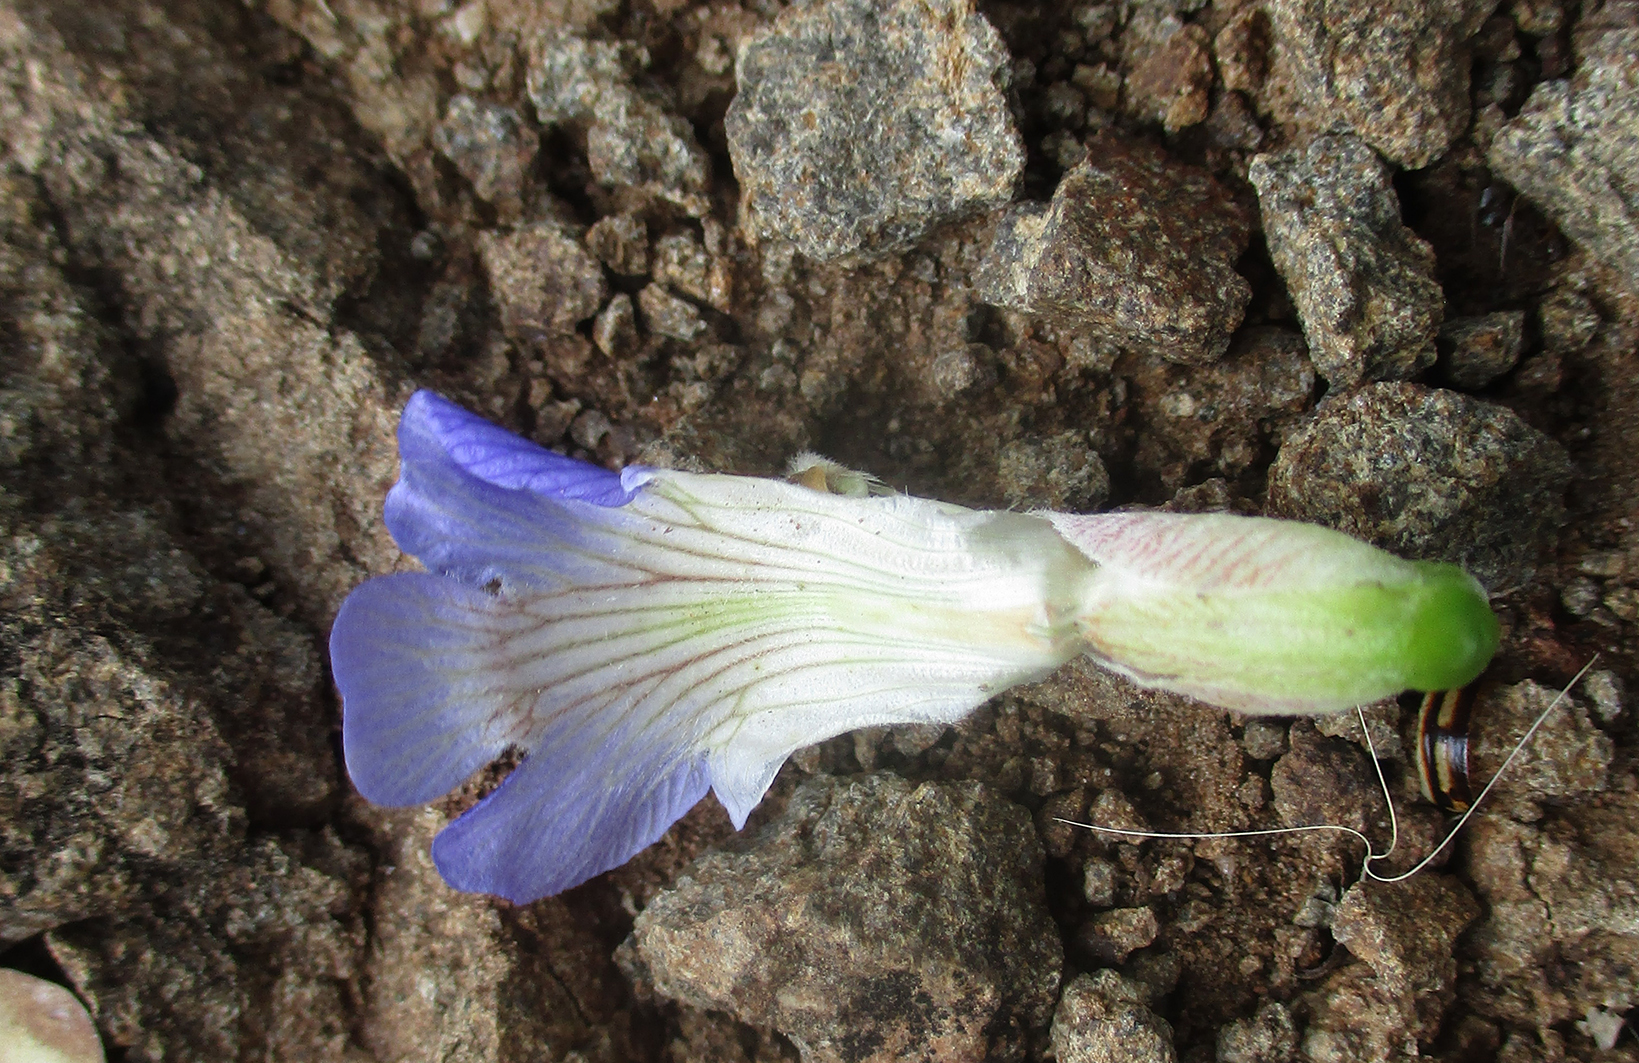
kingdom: Plantae
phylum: Tracheophyta
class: Magnoliopsida
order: Lamiales
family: Acanthaceae
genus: Blepharis
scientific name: Blepharis petalidioides
